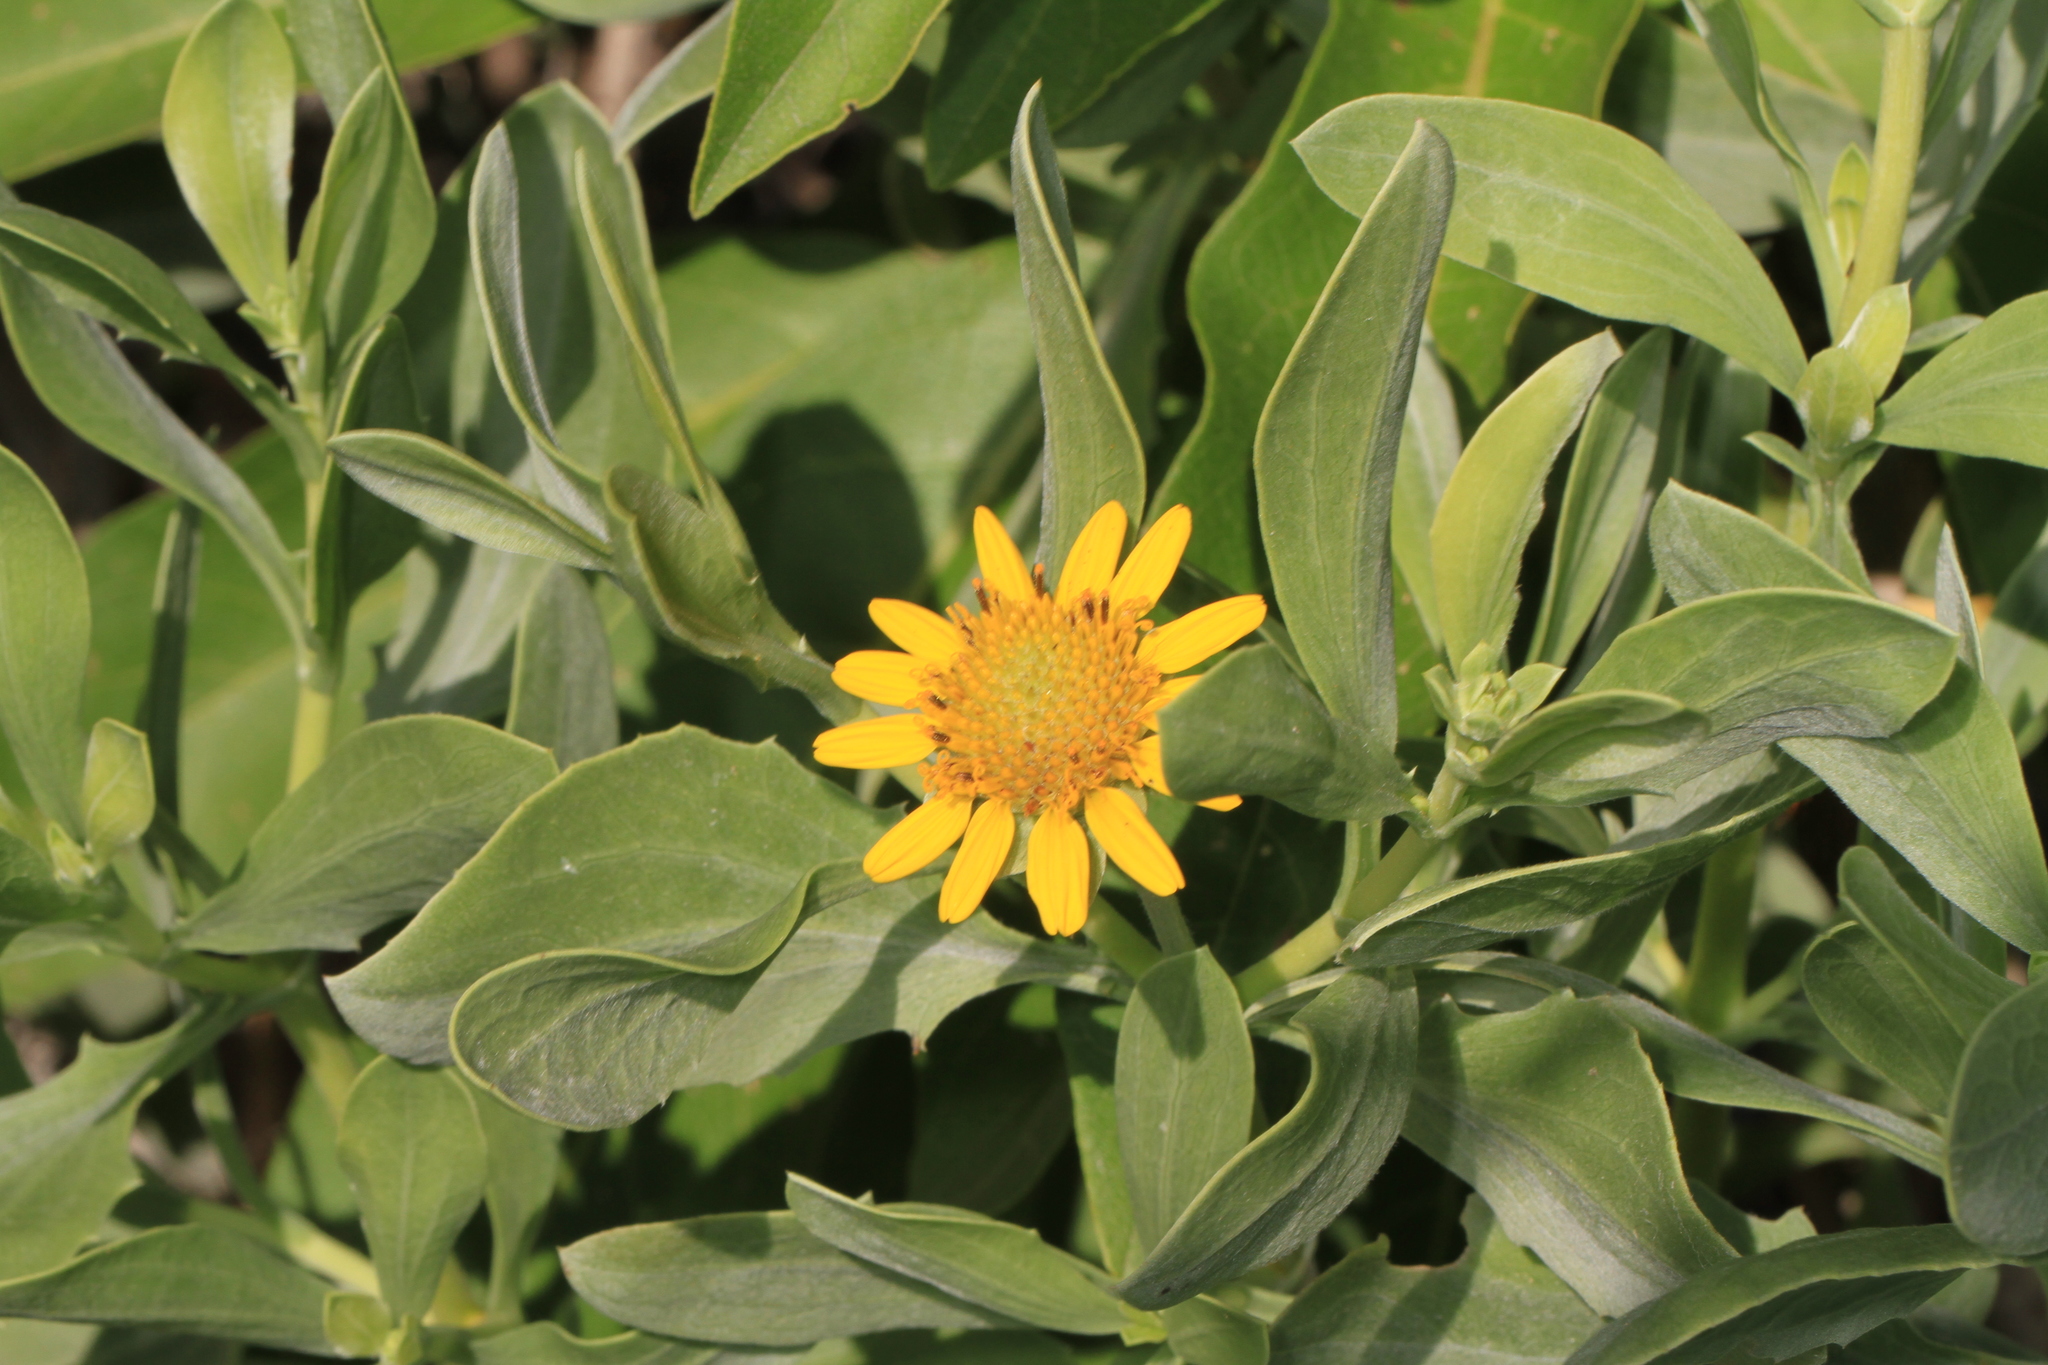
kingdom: Plantae
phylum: Tracheophyta
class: Magnoliopsida
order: Asterales
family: Asteraceae
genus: Borrichia
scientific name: Borrichia frutescens
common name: Sea oxeye
